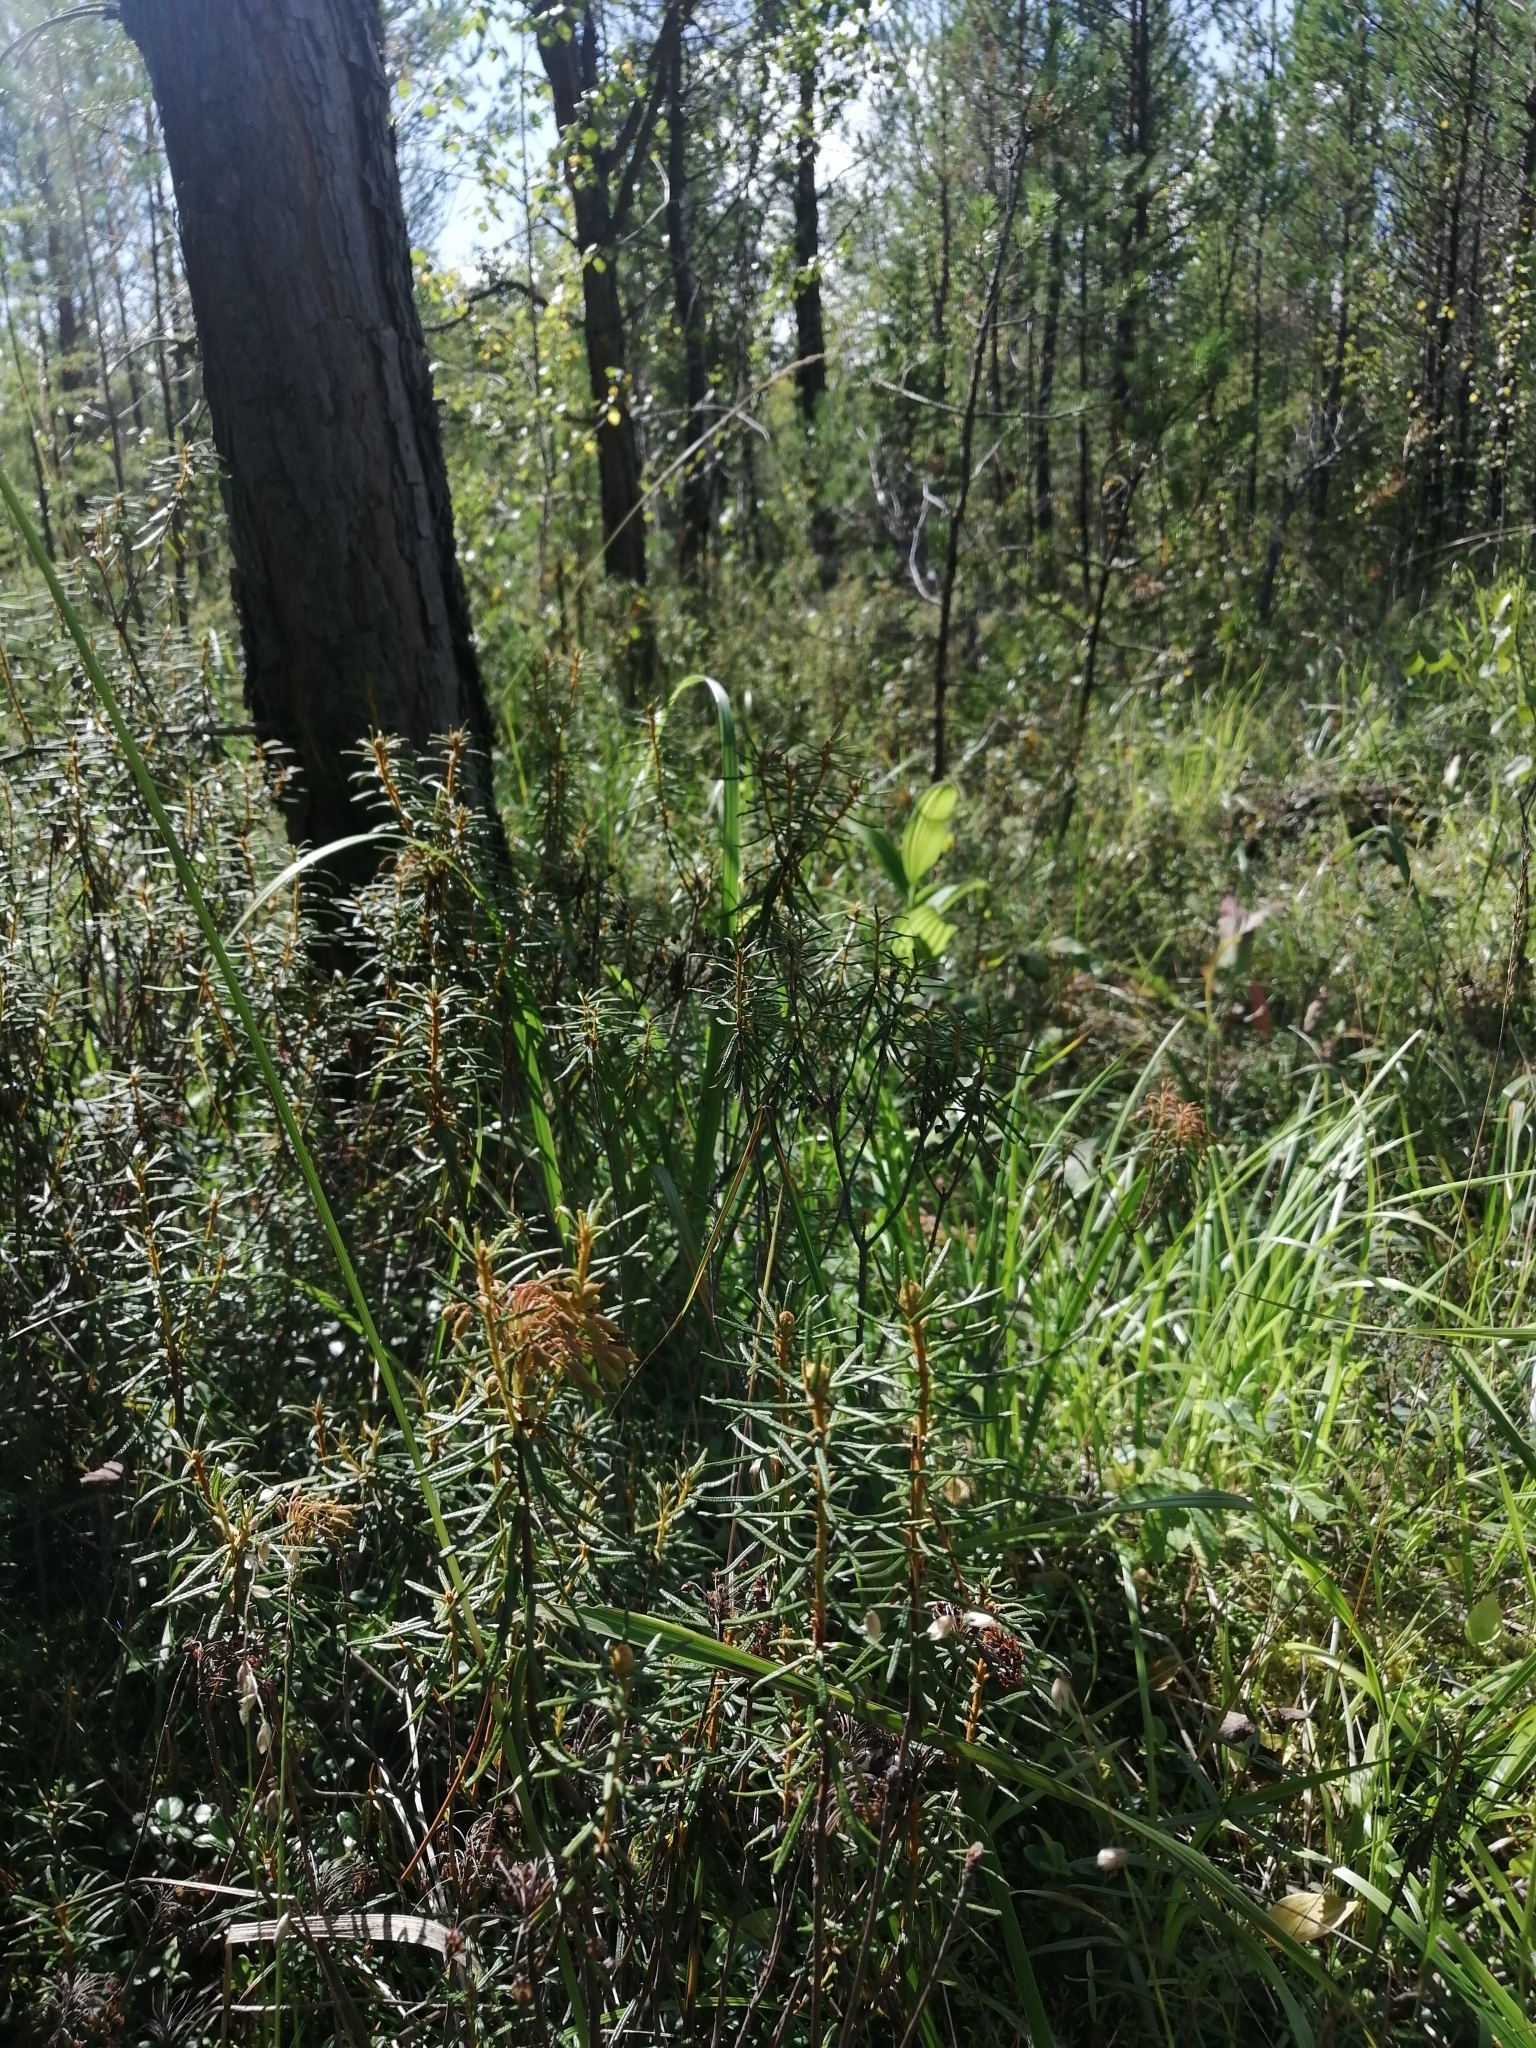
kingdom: Plantae
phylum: Tracheophyta
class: Magnoliopsida
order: Ericales
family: Ericaceae
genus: Rhododendron
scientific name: Rhododendron tomentosum
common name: Marsh labrador tea
